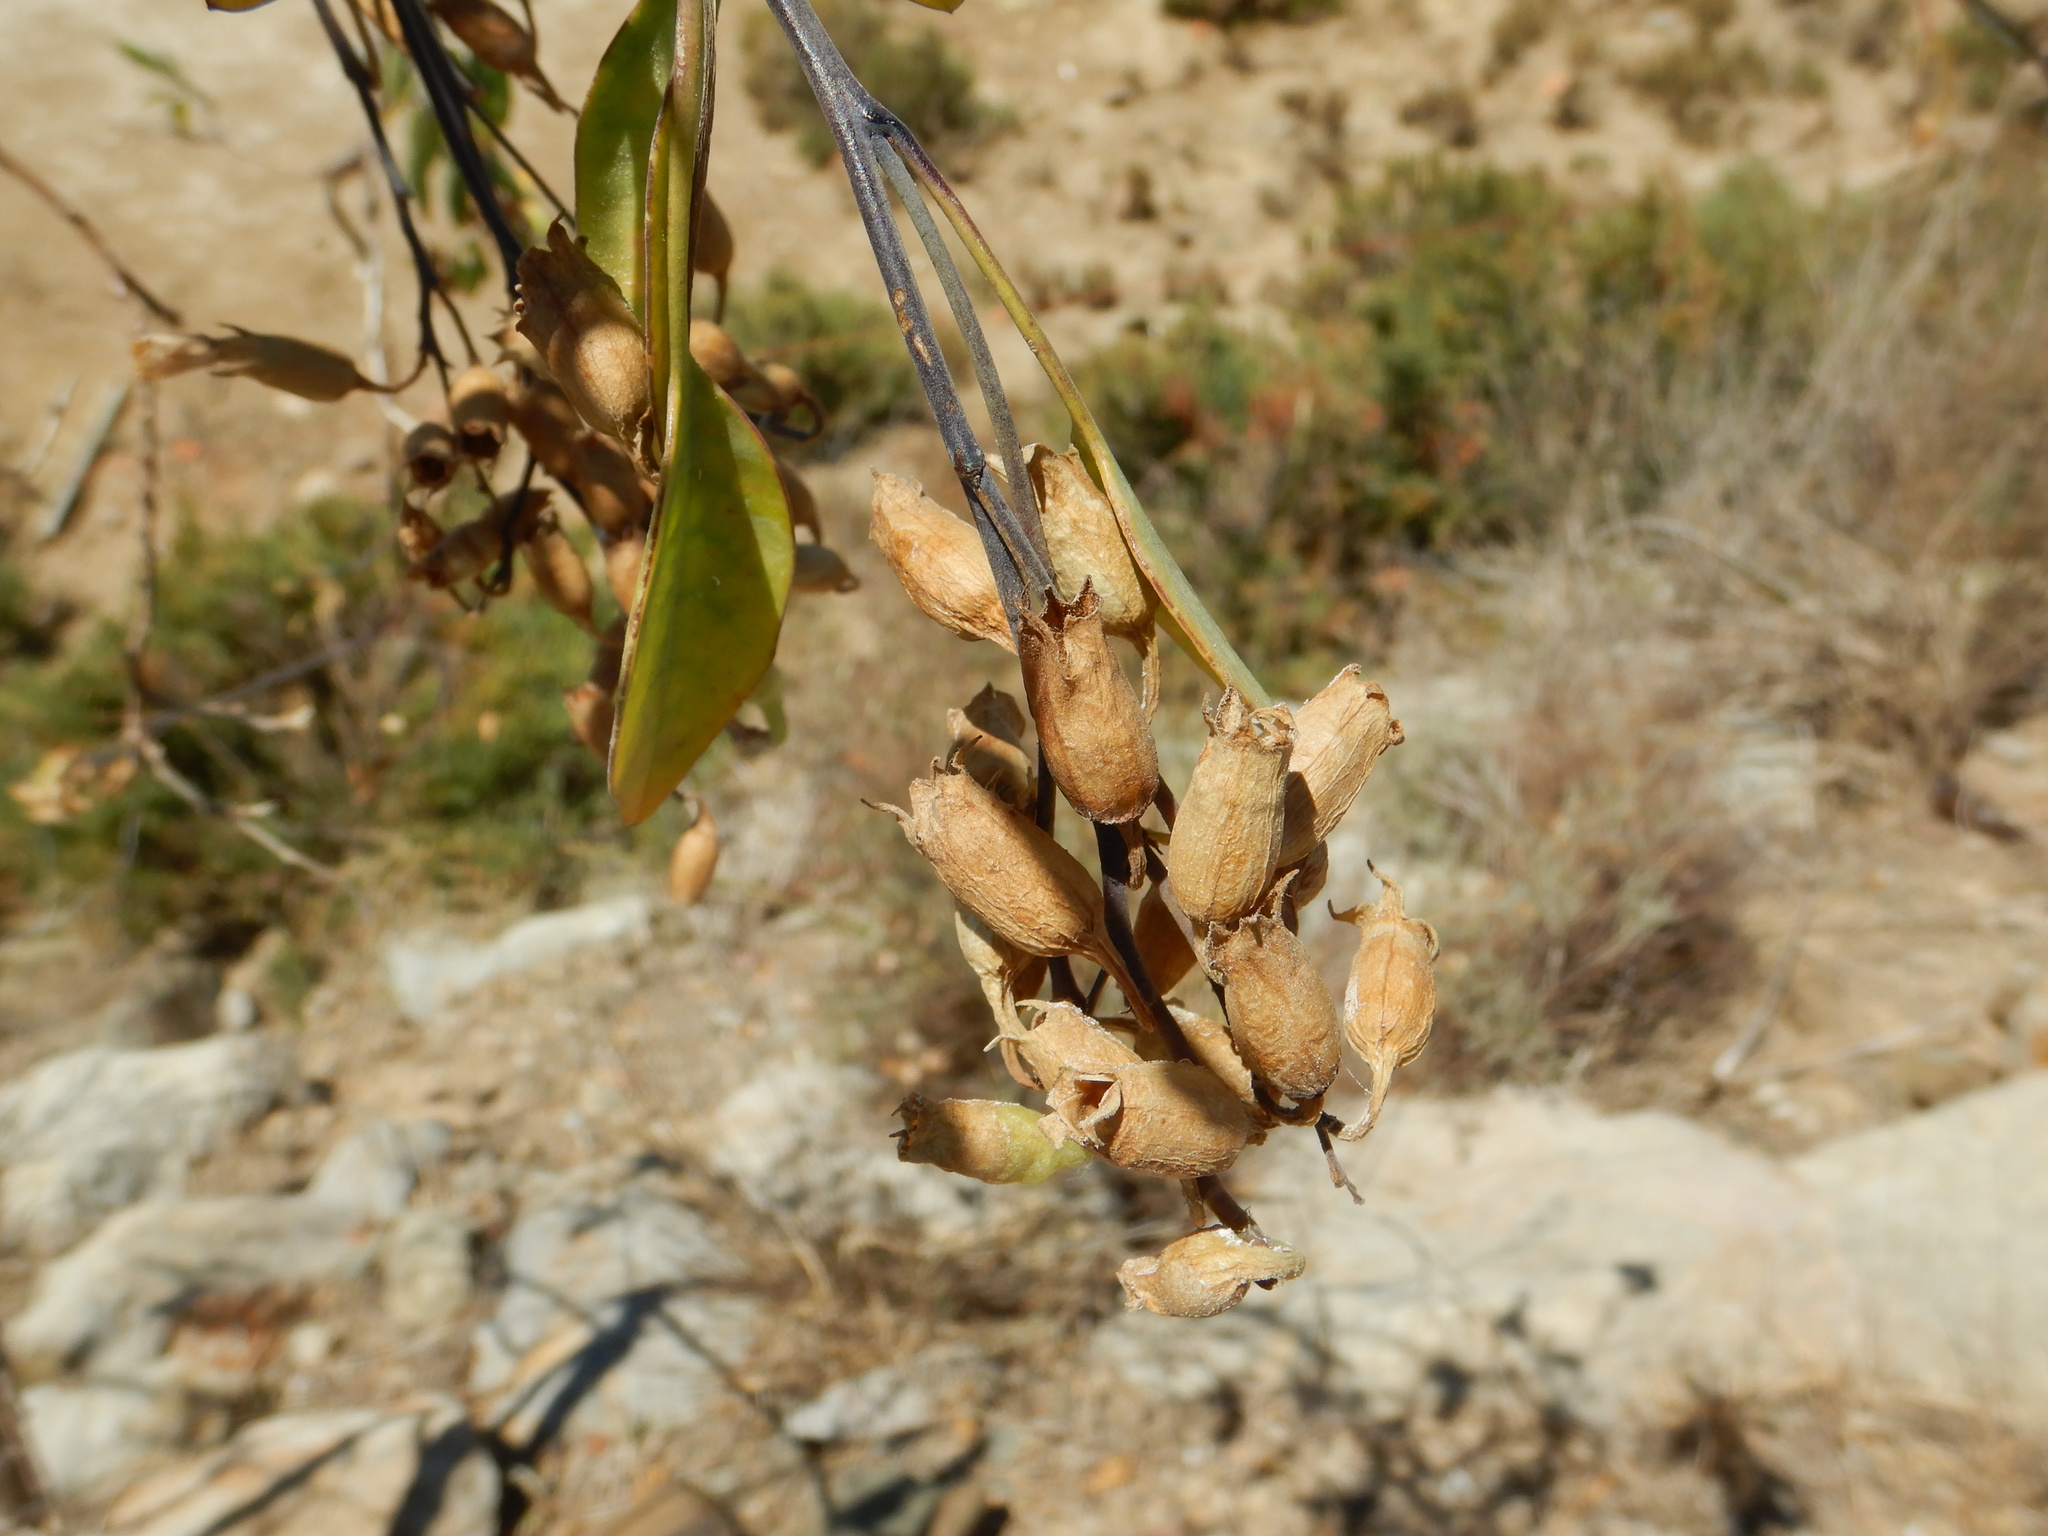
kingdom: Plantae
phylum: Tracheophyta
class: Magnoliopsida
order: Solanales
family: Solanaceae
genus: Nicotiana
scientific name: Nicotiana glauca
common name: Tree tobacco
